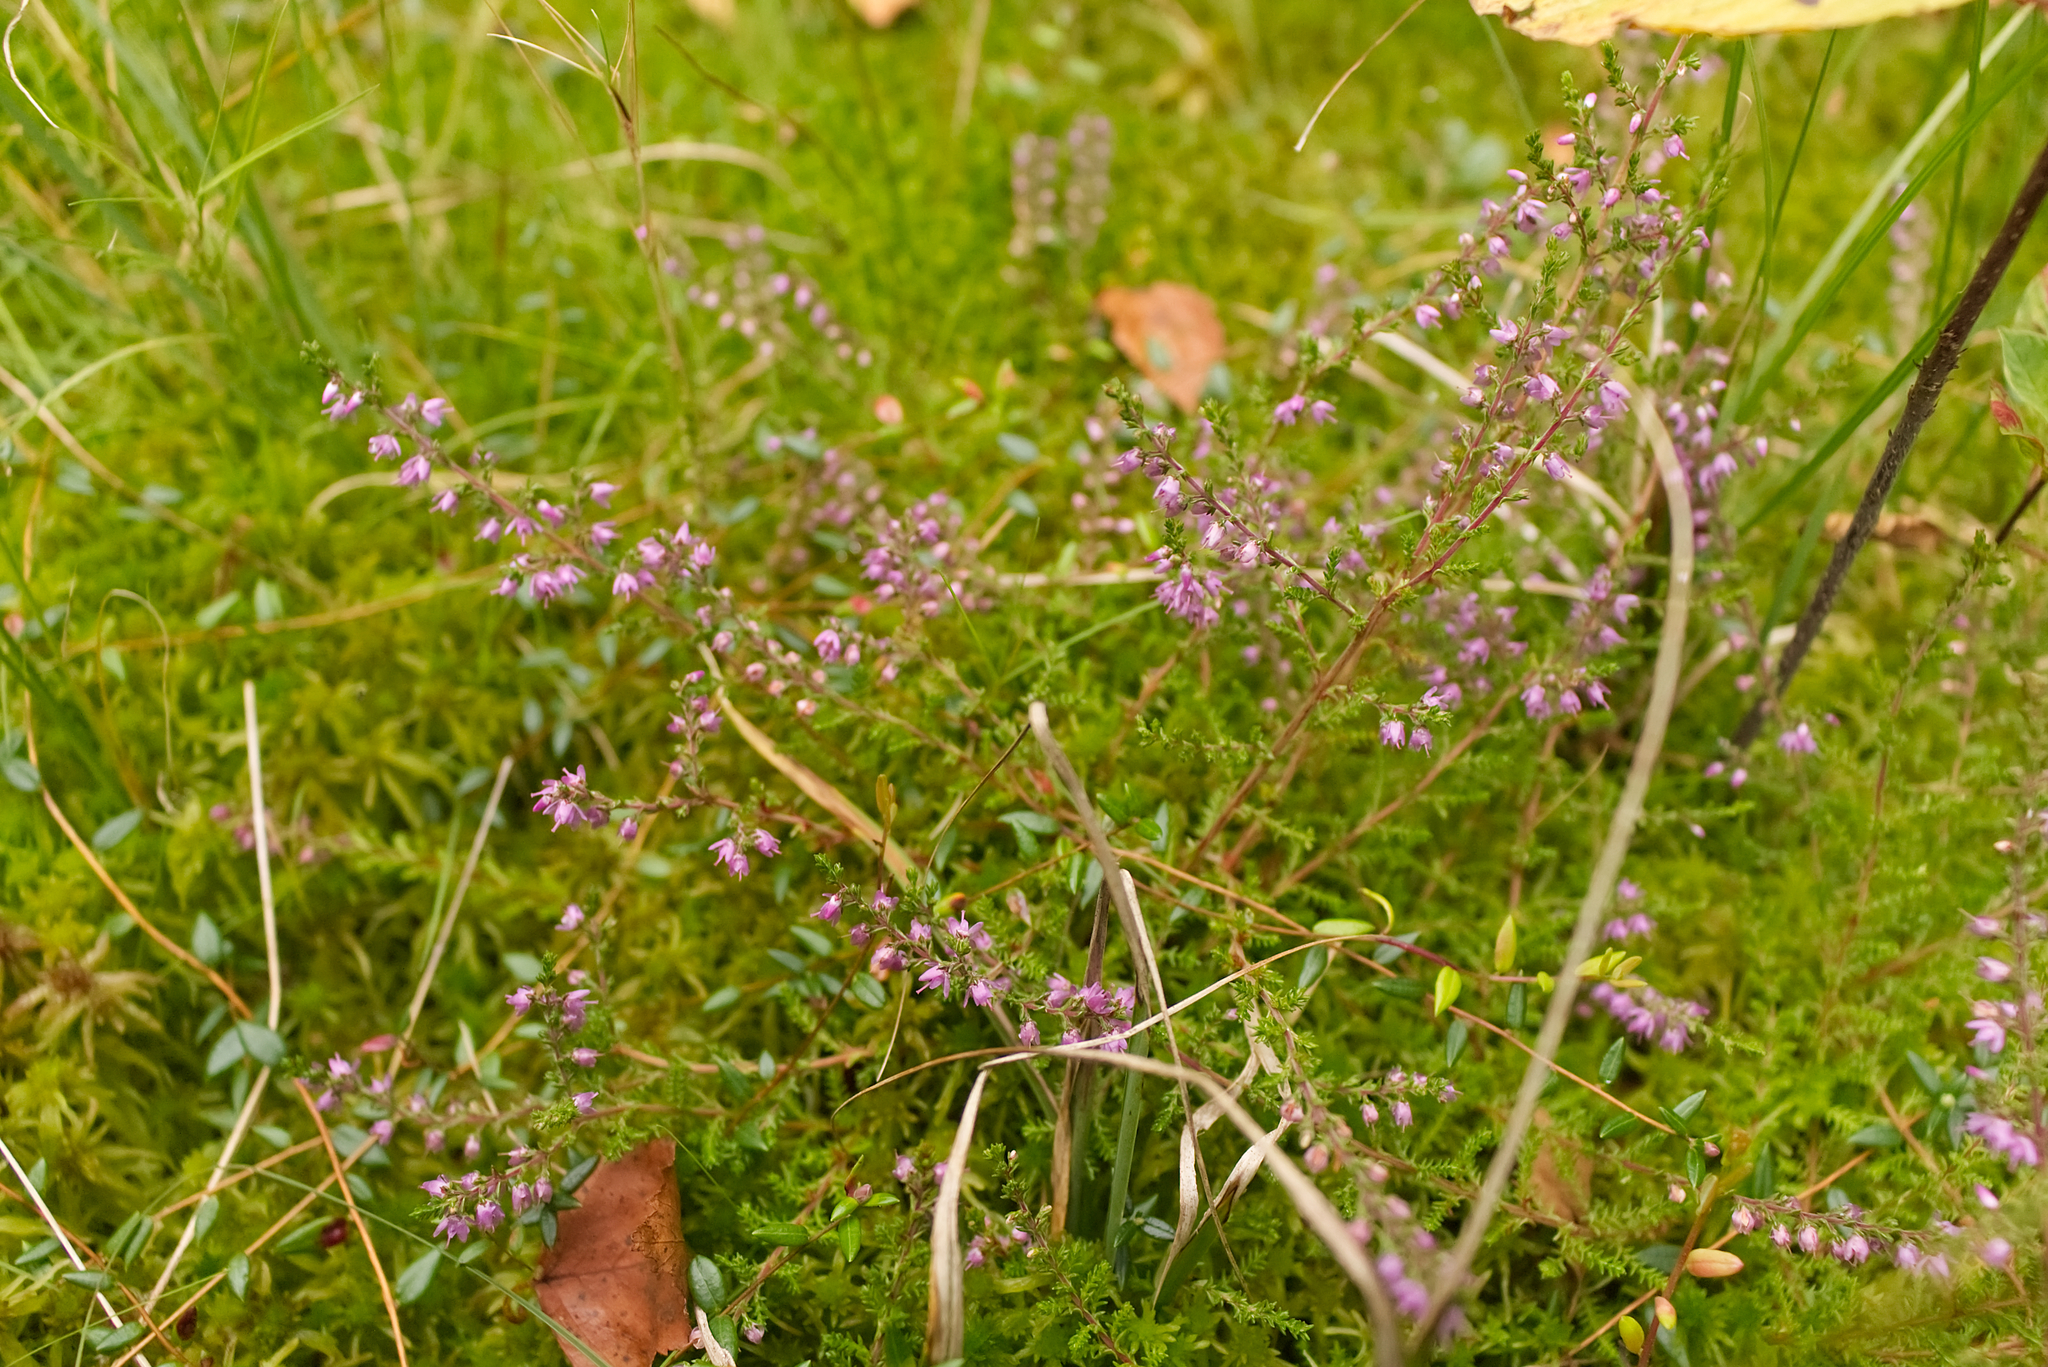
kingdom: Plantae
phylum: Tracheophyta
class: Magnoliopsida
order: Ericales
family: Ericaceae
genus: Calluna
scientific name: Calluna vulgaris
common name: Heather
